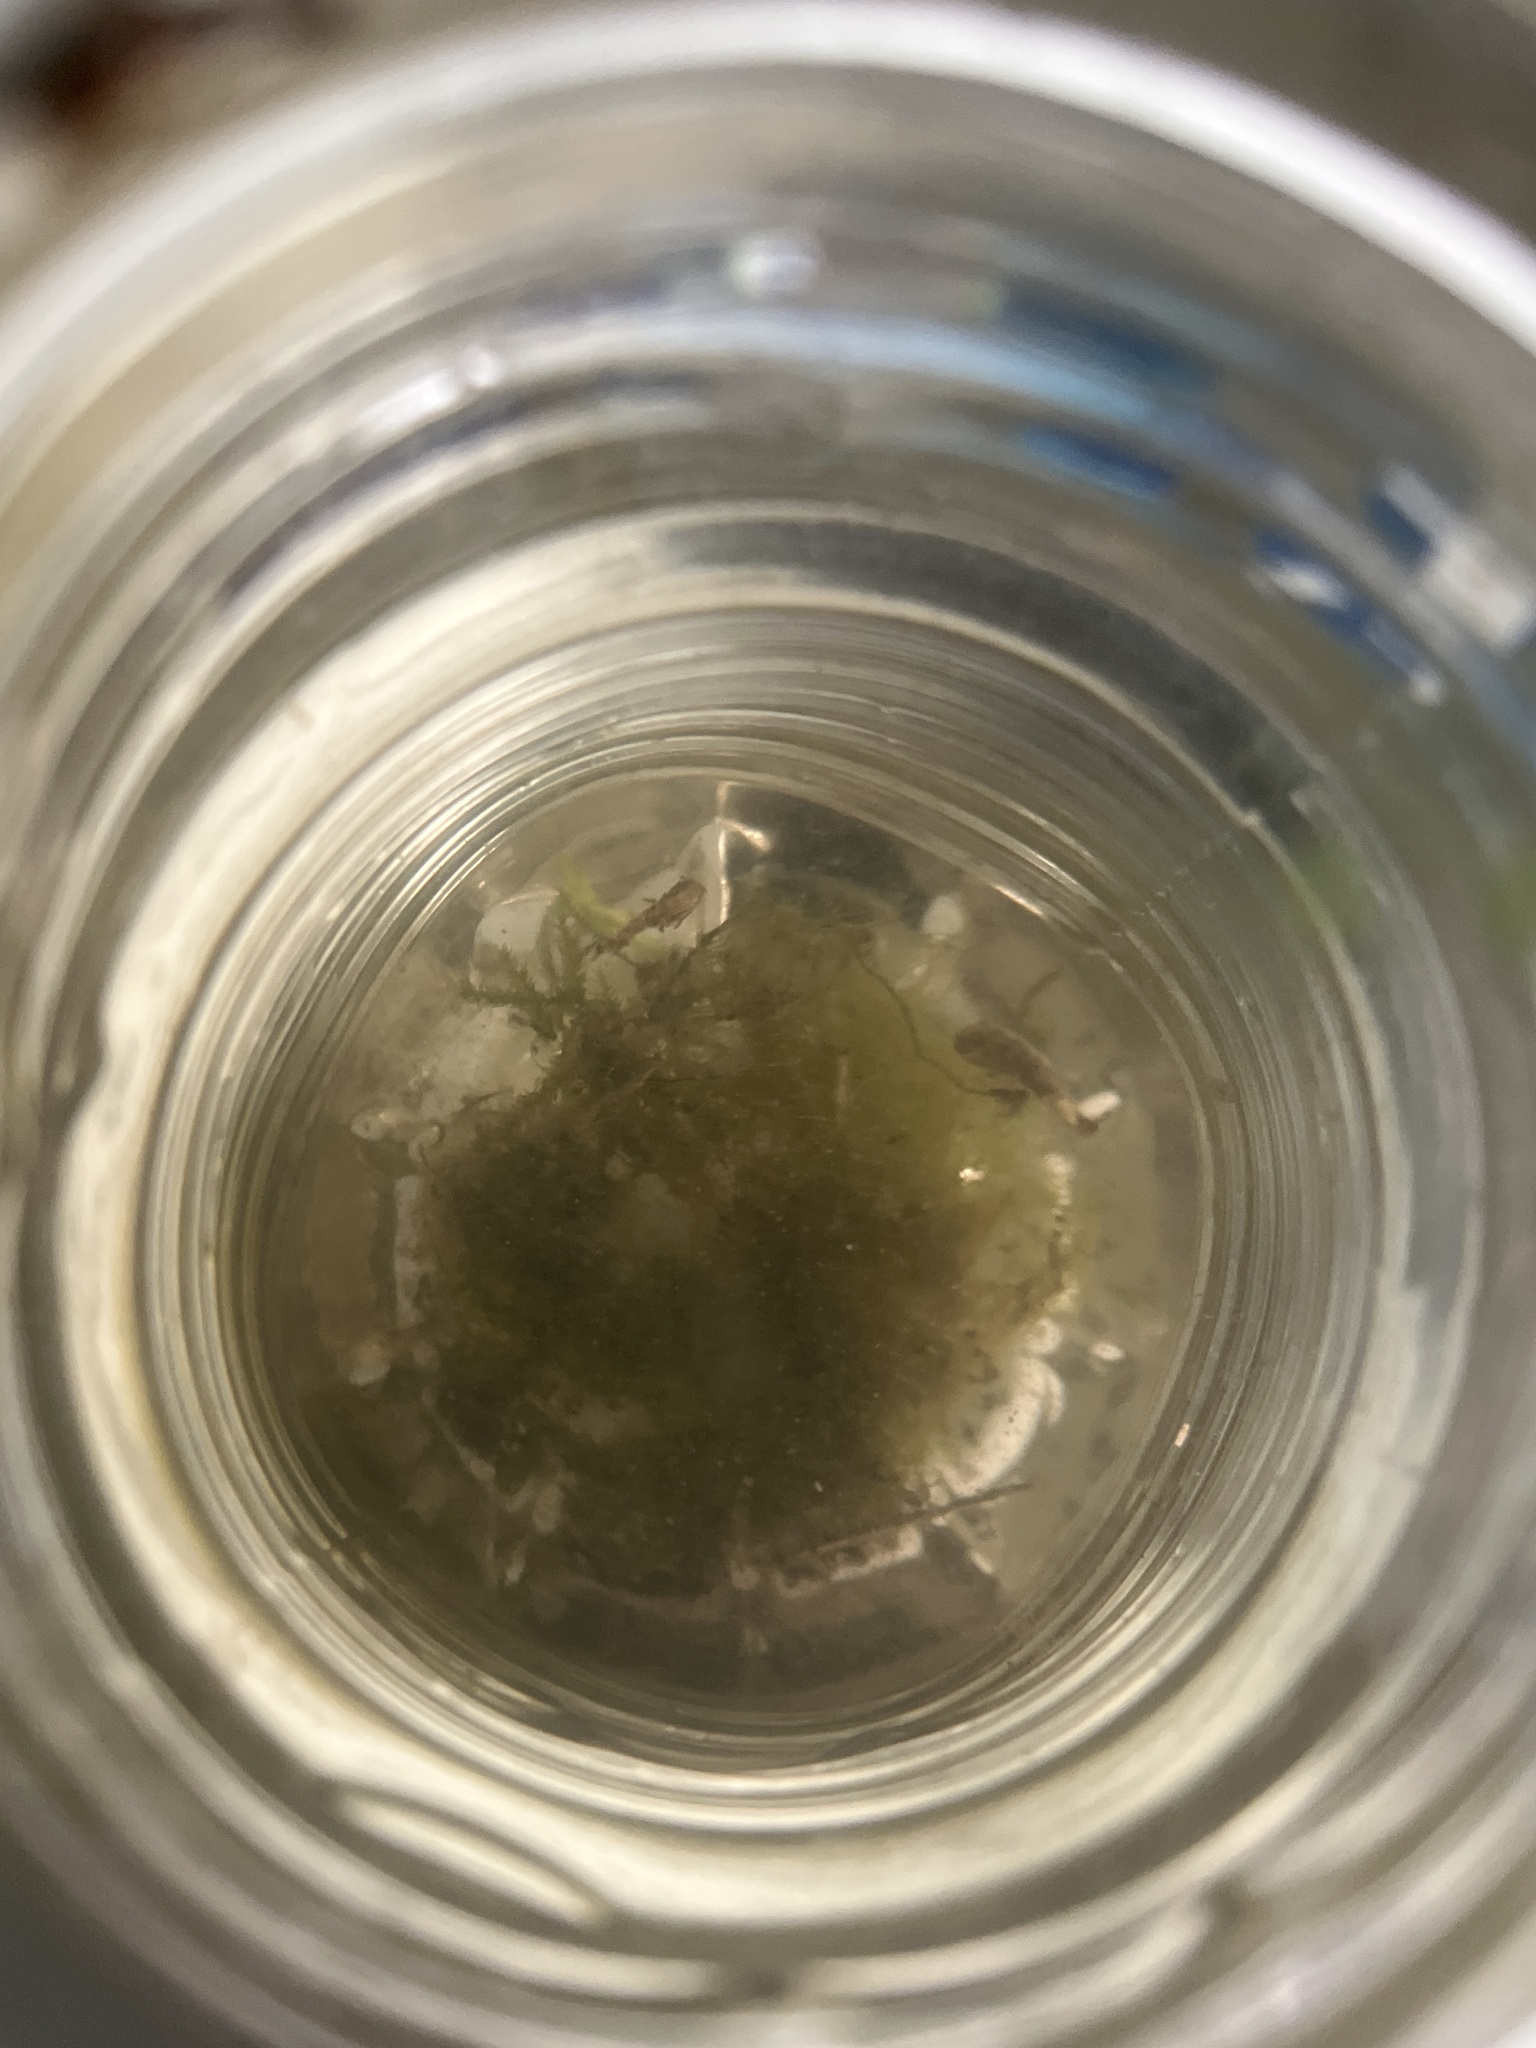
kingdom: Chromista
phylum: Ochrophyta
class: Xanthophyceae
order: Vaucheriales
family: Vaucheriaceae
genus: Vaucheria
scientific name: Vaucheria
